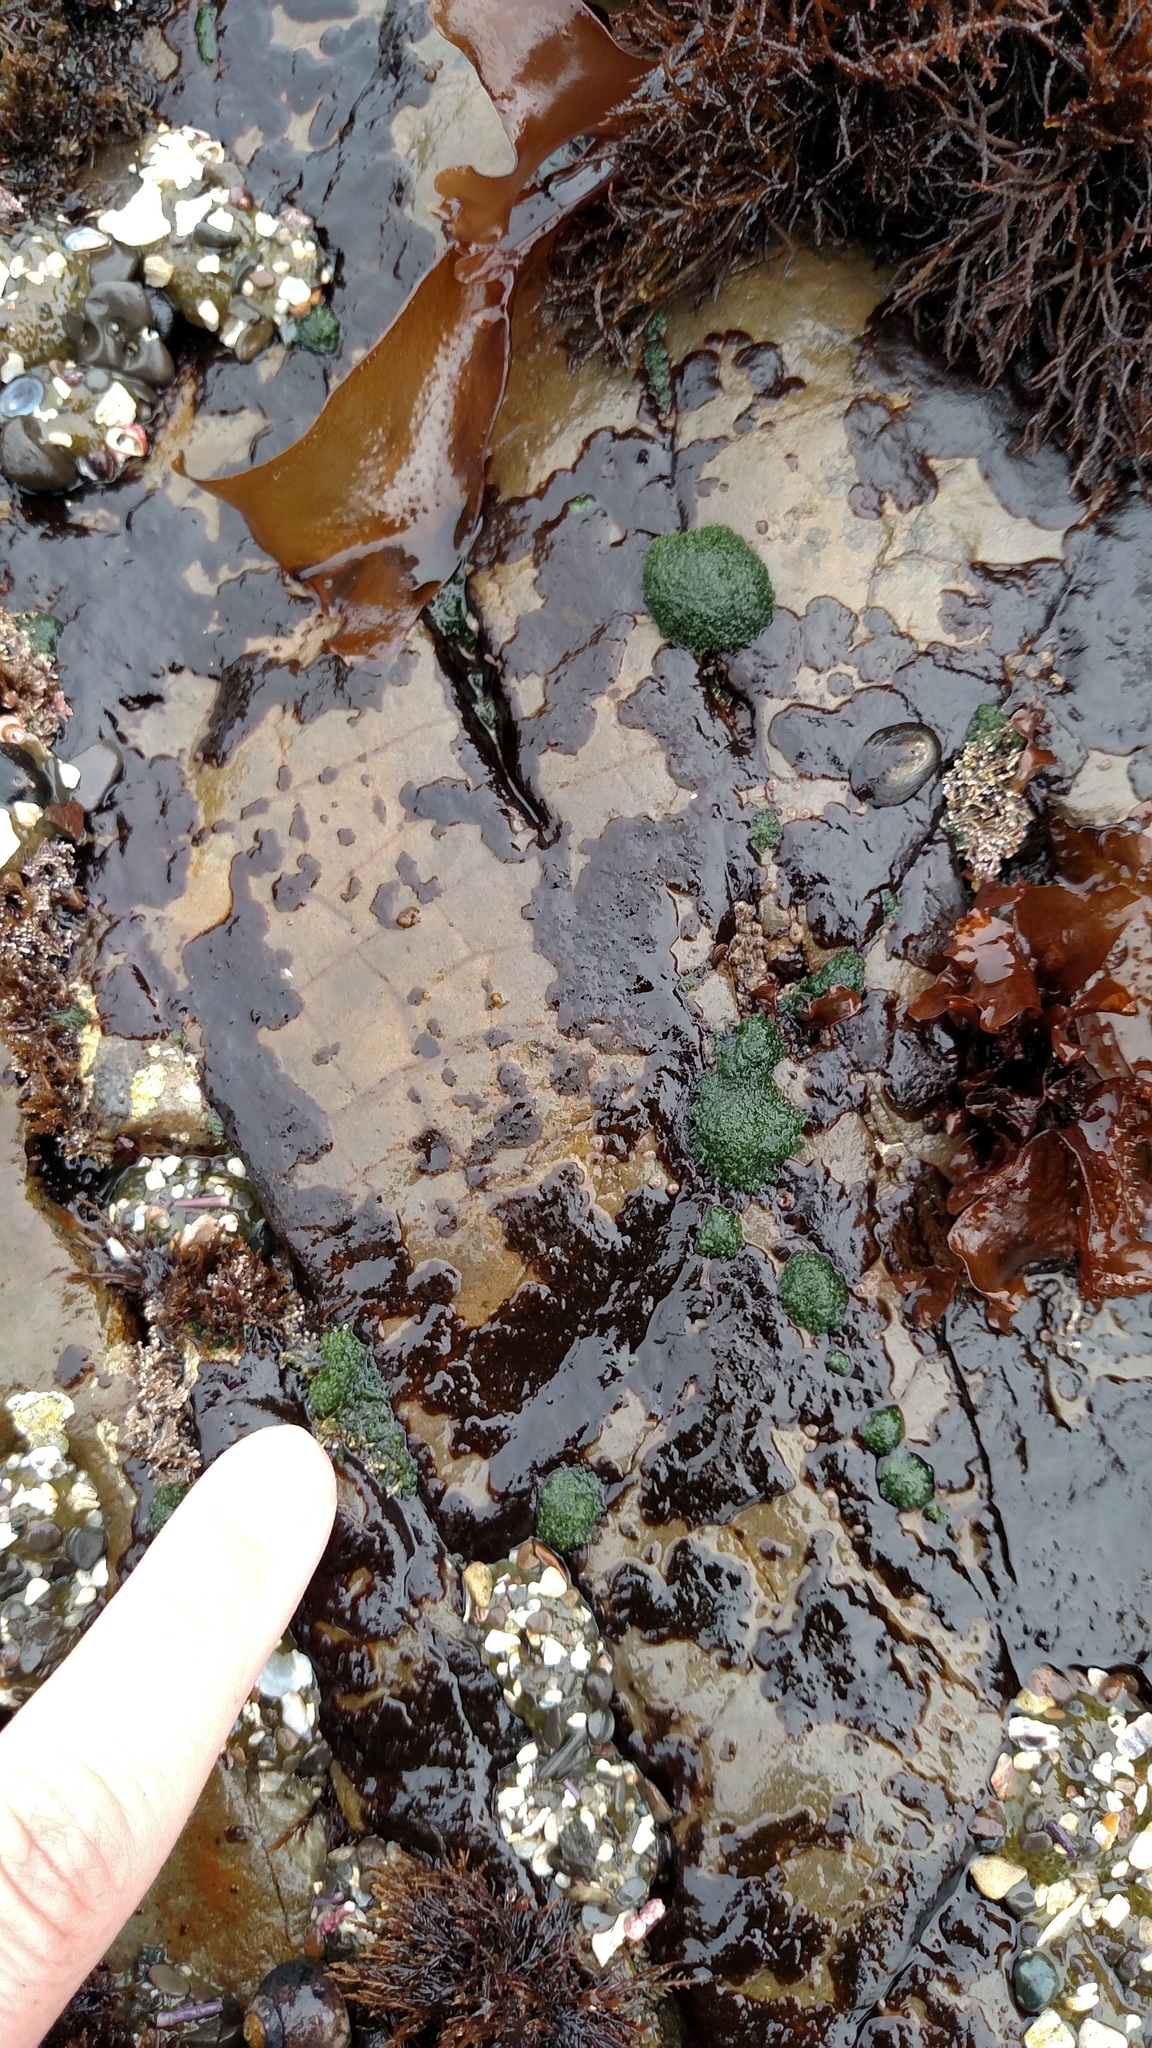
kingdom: Plantae
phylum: Chlorophyta
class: Ulvophyceae
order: Cladophorales
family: Cladophoraceae
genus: Cladophora
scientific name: Cladophora columbiana
